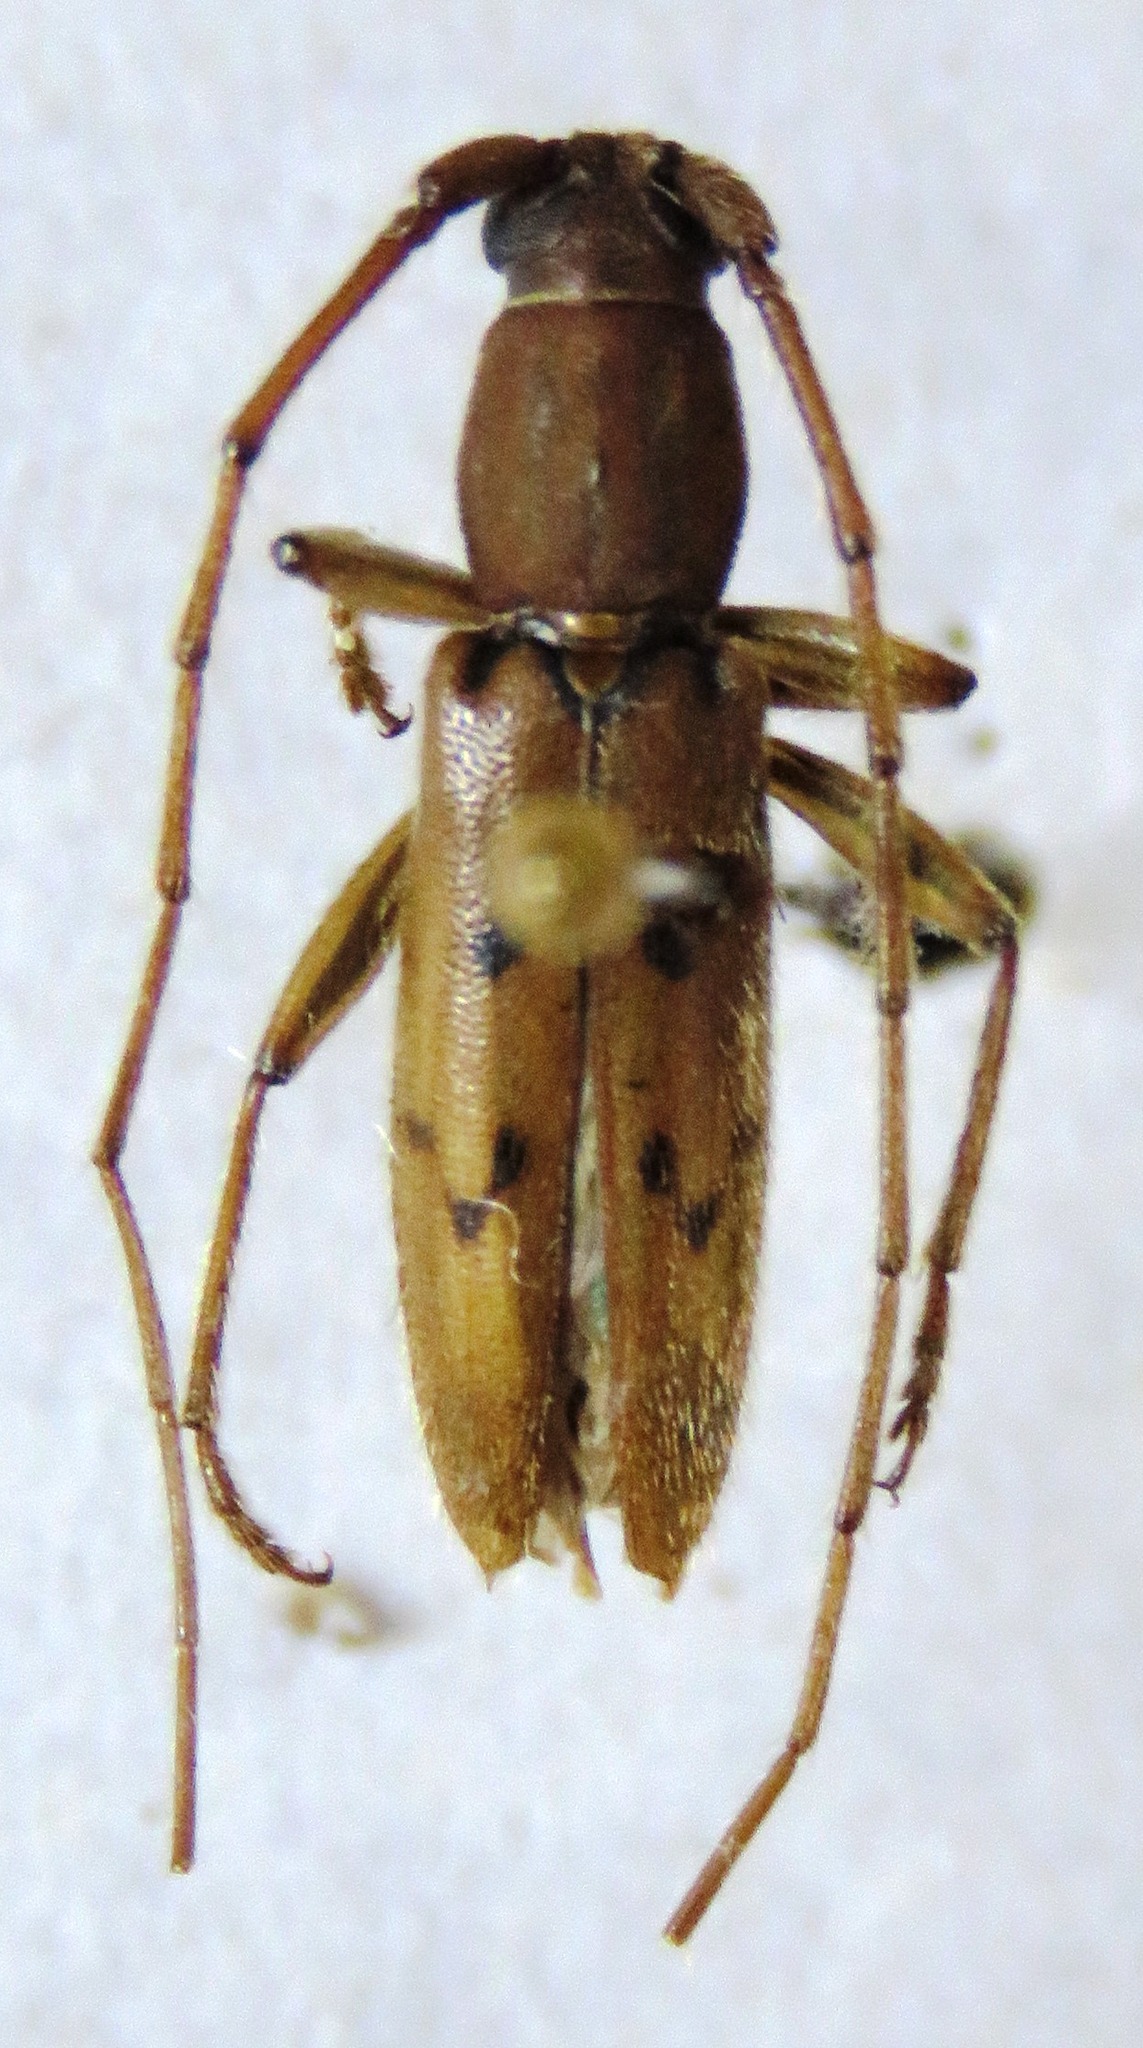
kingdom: Animalia
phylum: Arthropoda
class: Insecta
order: Coleoptera
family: Cerambycidae
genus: Achryson
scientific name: Achryson surinamum
